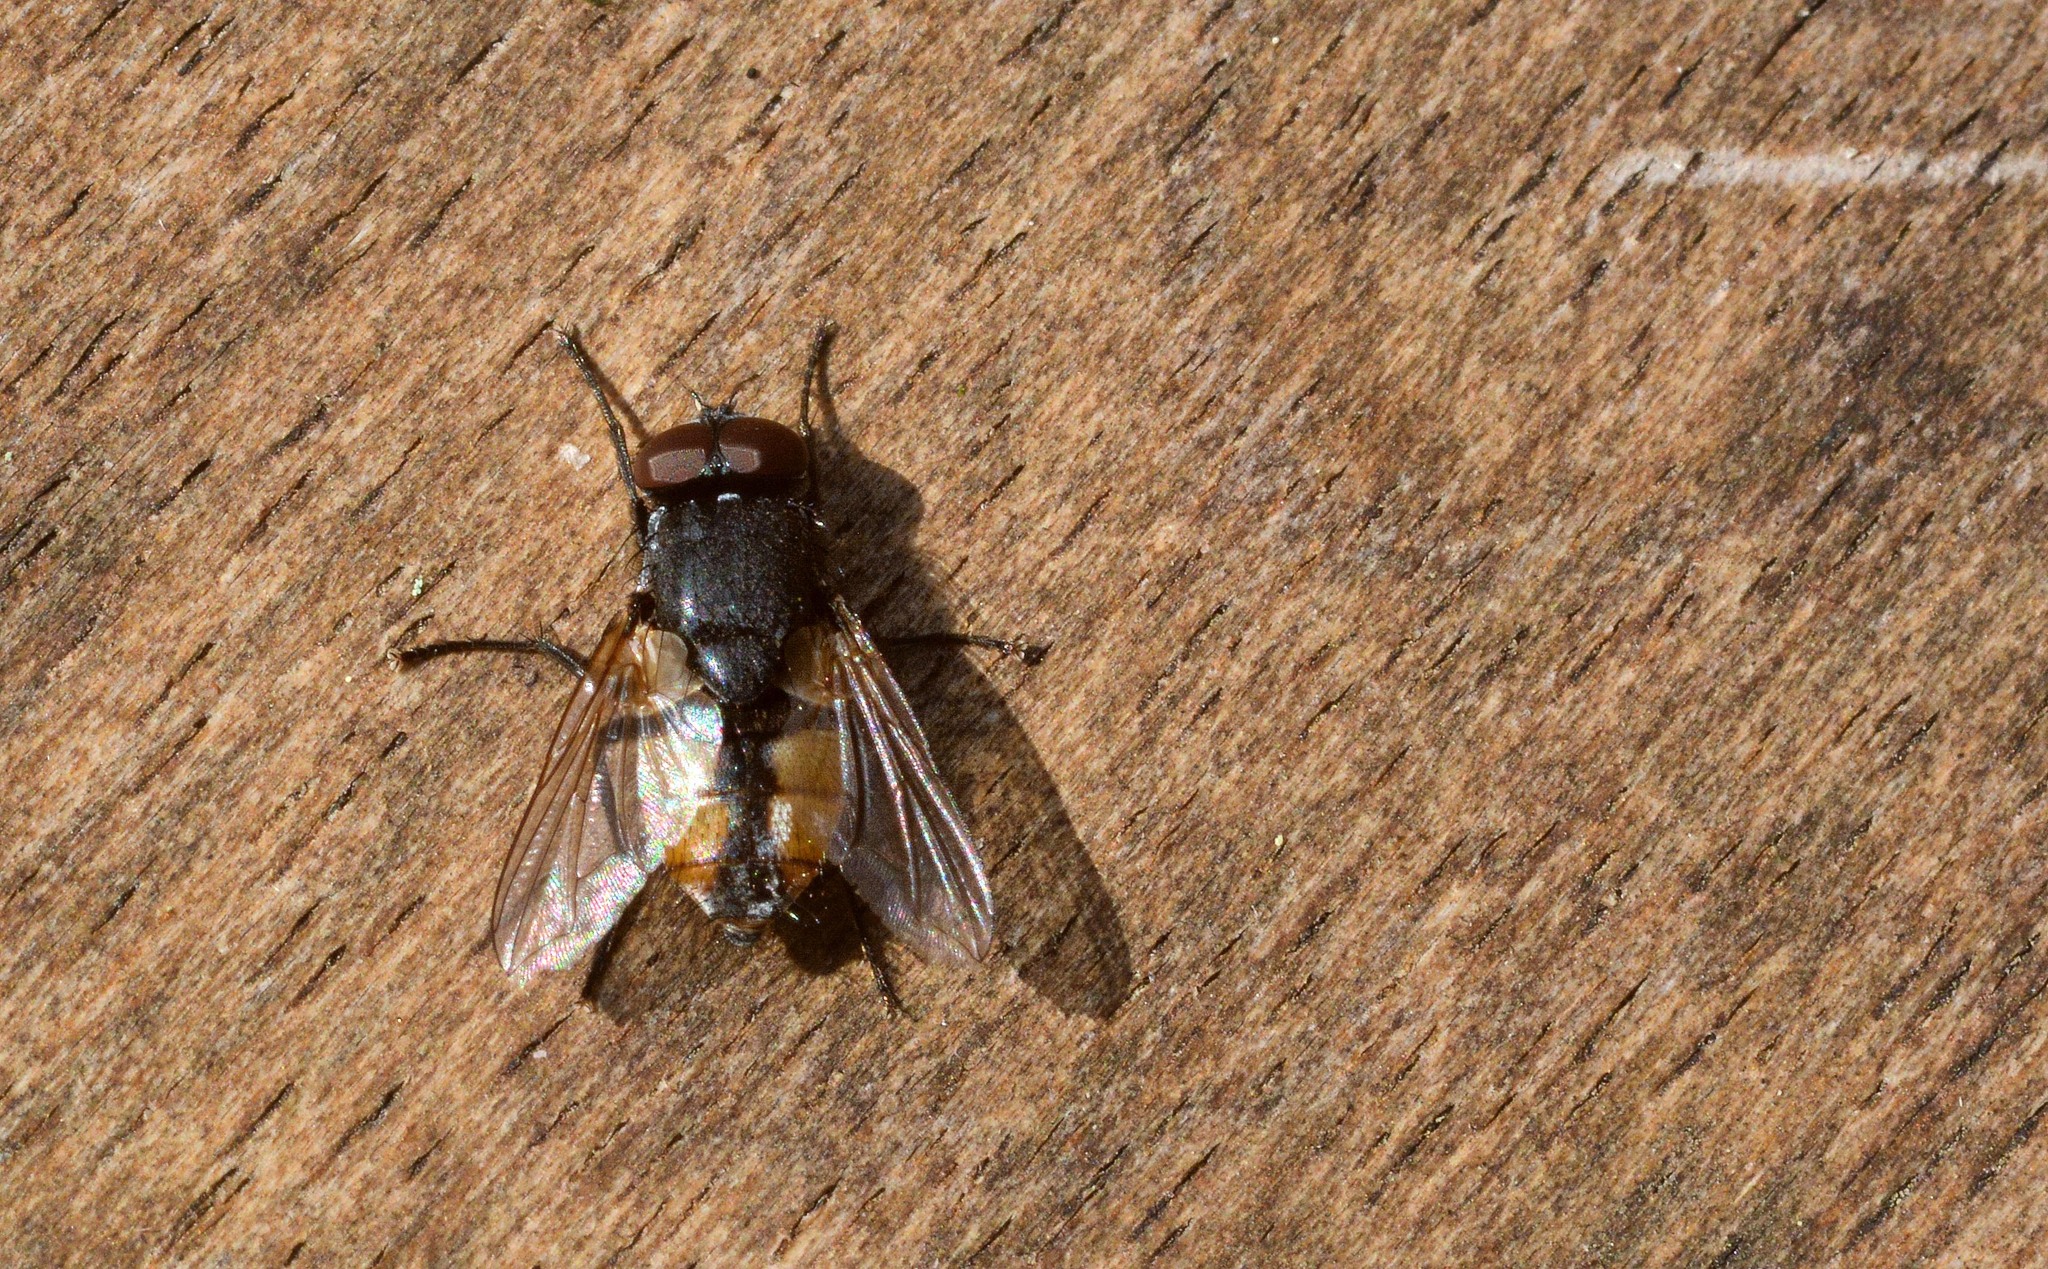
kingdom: Animalia
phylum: Arthropoda
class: Insecta
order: Diptera
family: Muscidae
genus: Musca
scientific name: Musca autumnalis
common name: Face fly
